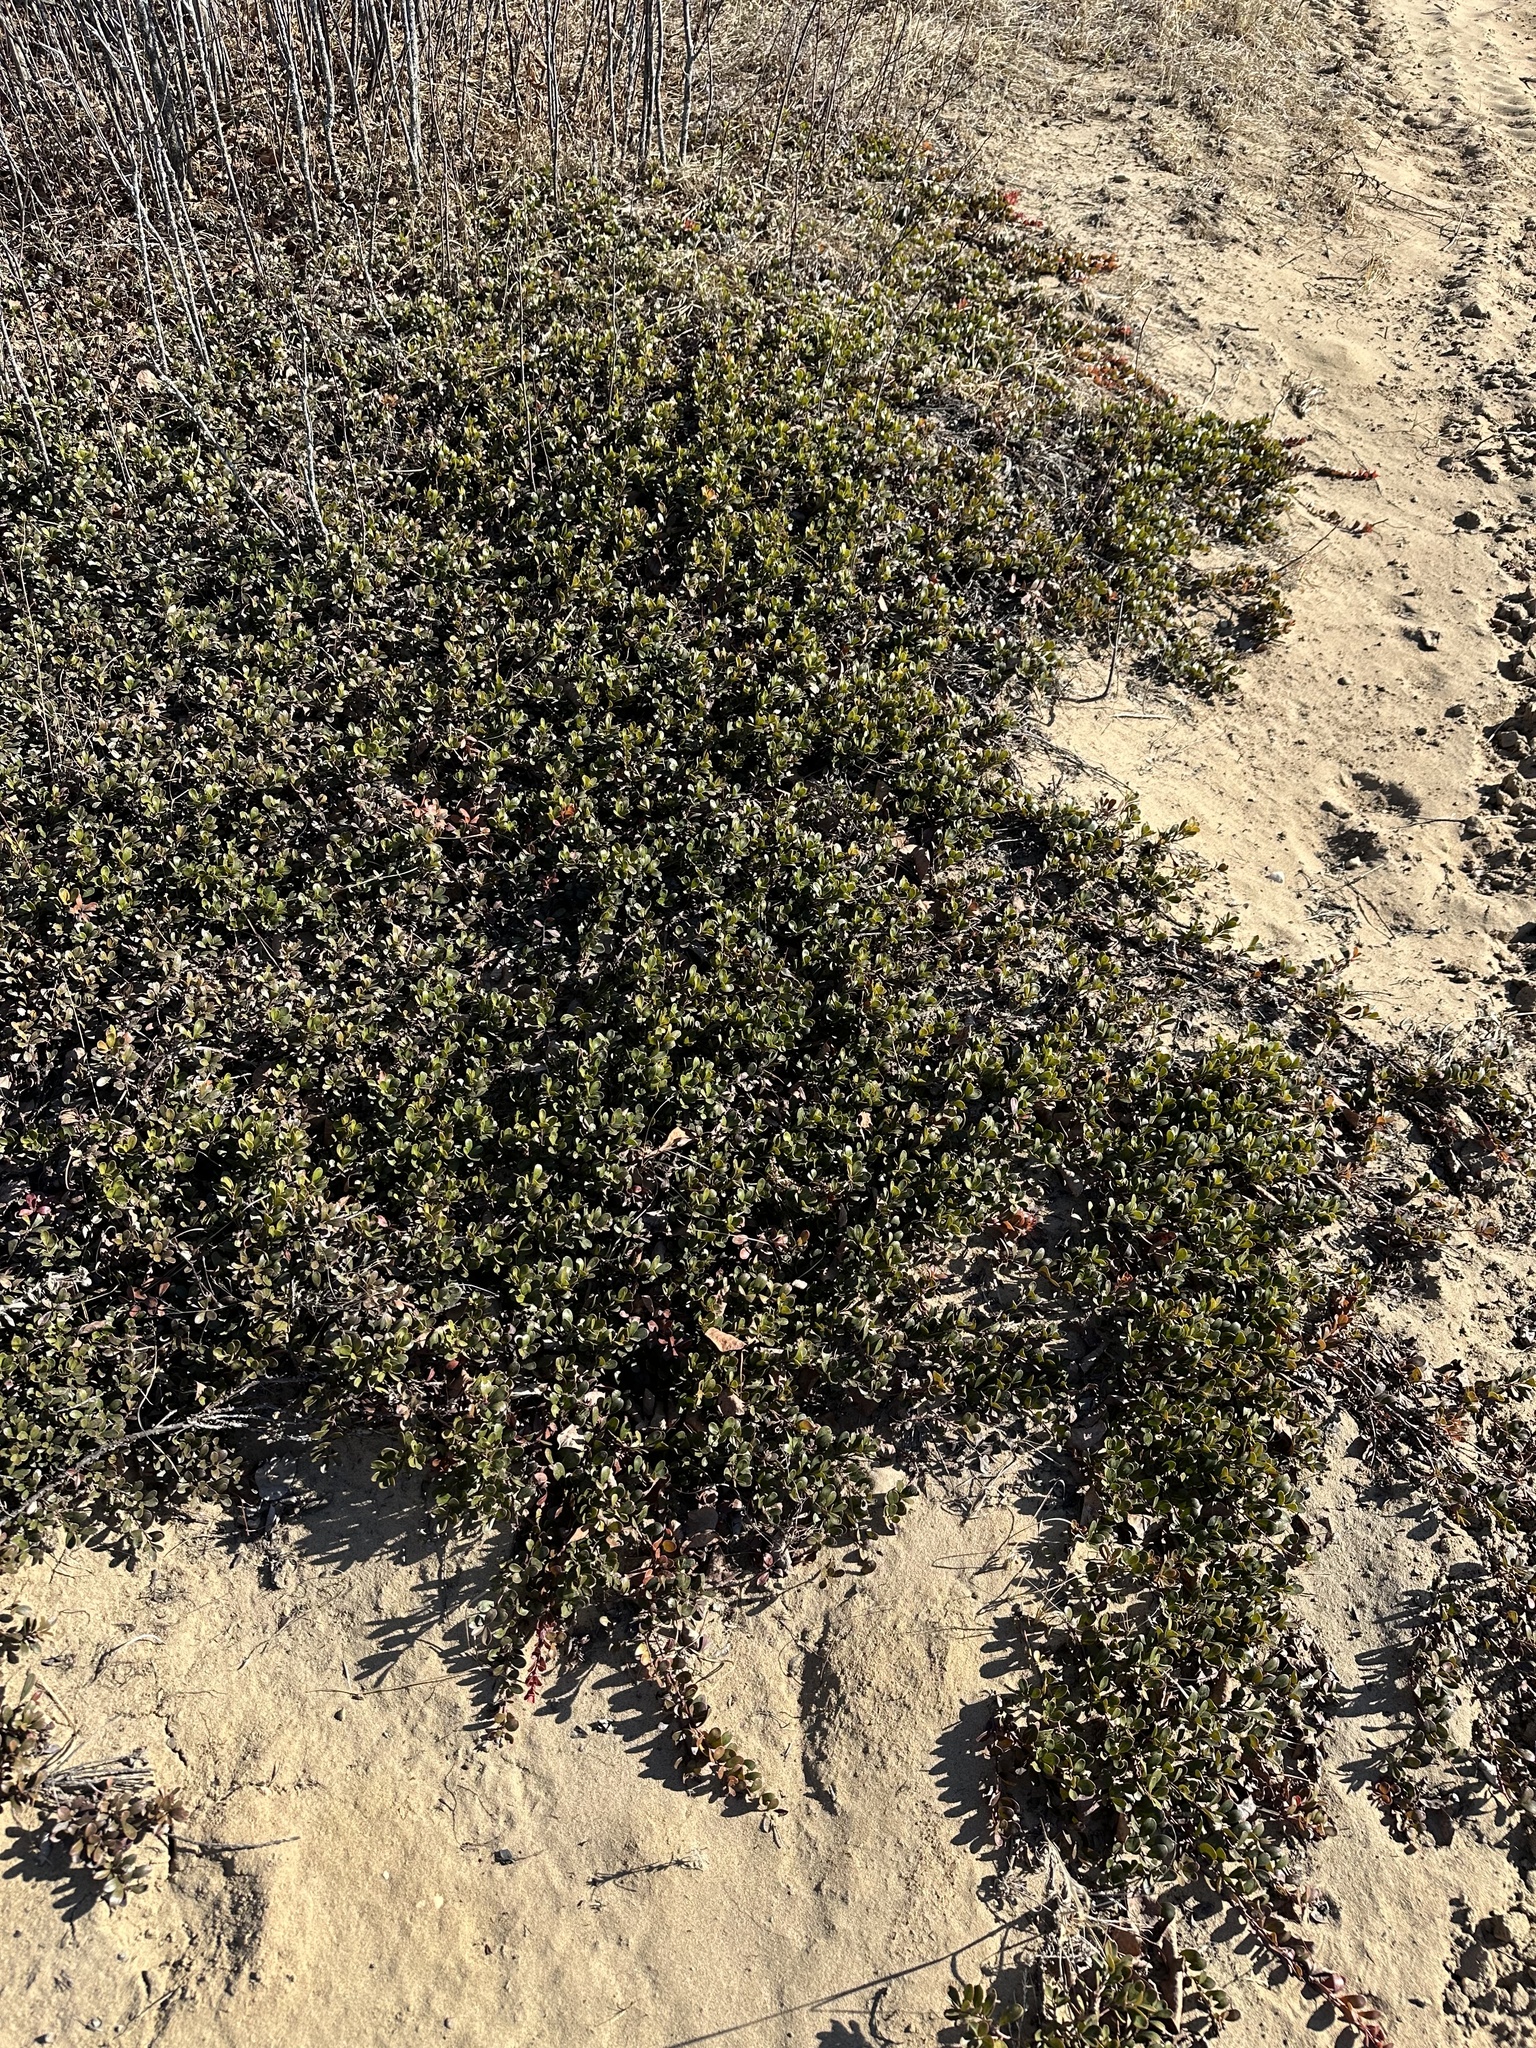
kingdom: Plantae
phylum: Tracheophyta
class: Magnoliopsida
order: Ericales
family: Ericaceae
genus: Arctostaphylos
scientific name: Arctostaphylos uva-ursi
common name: Bearberry
